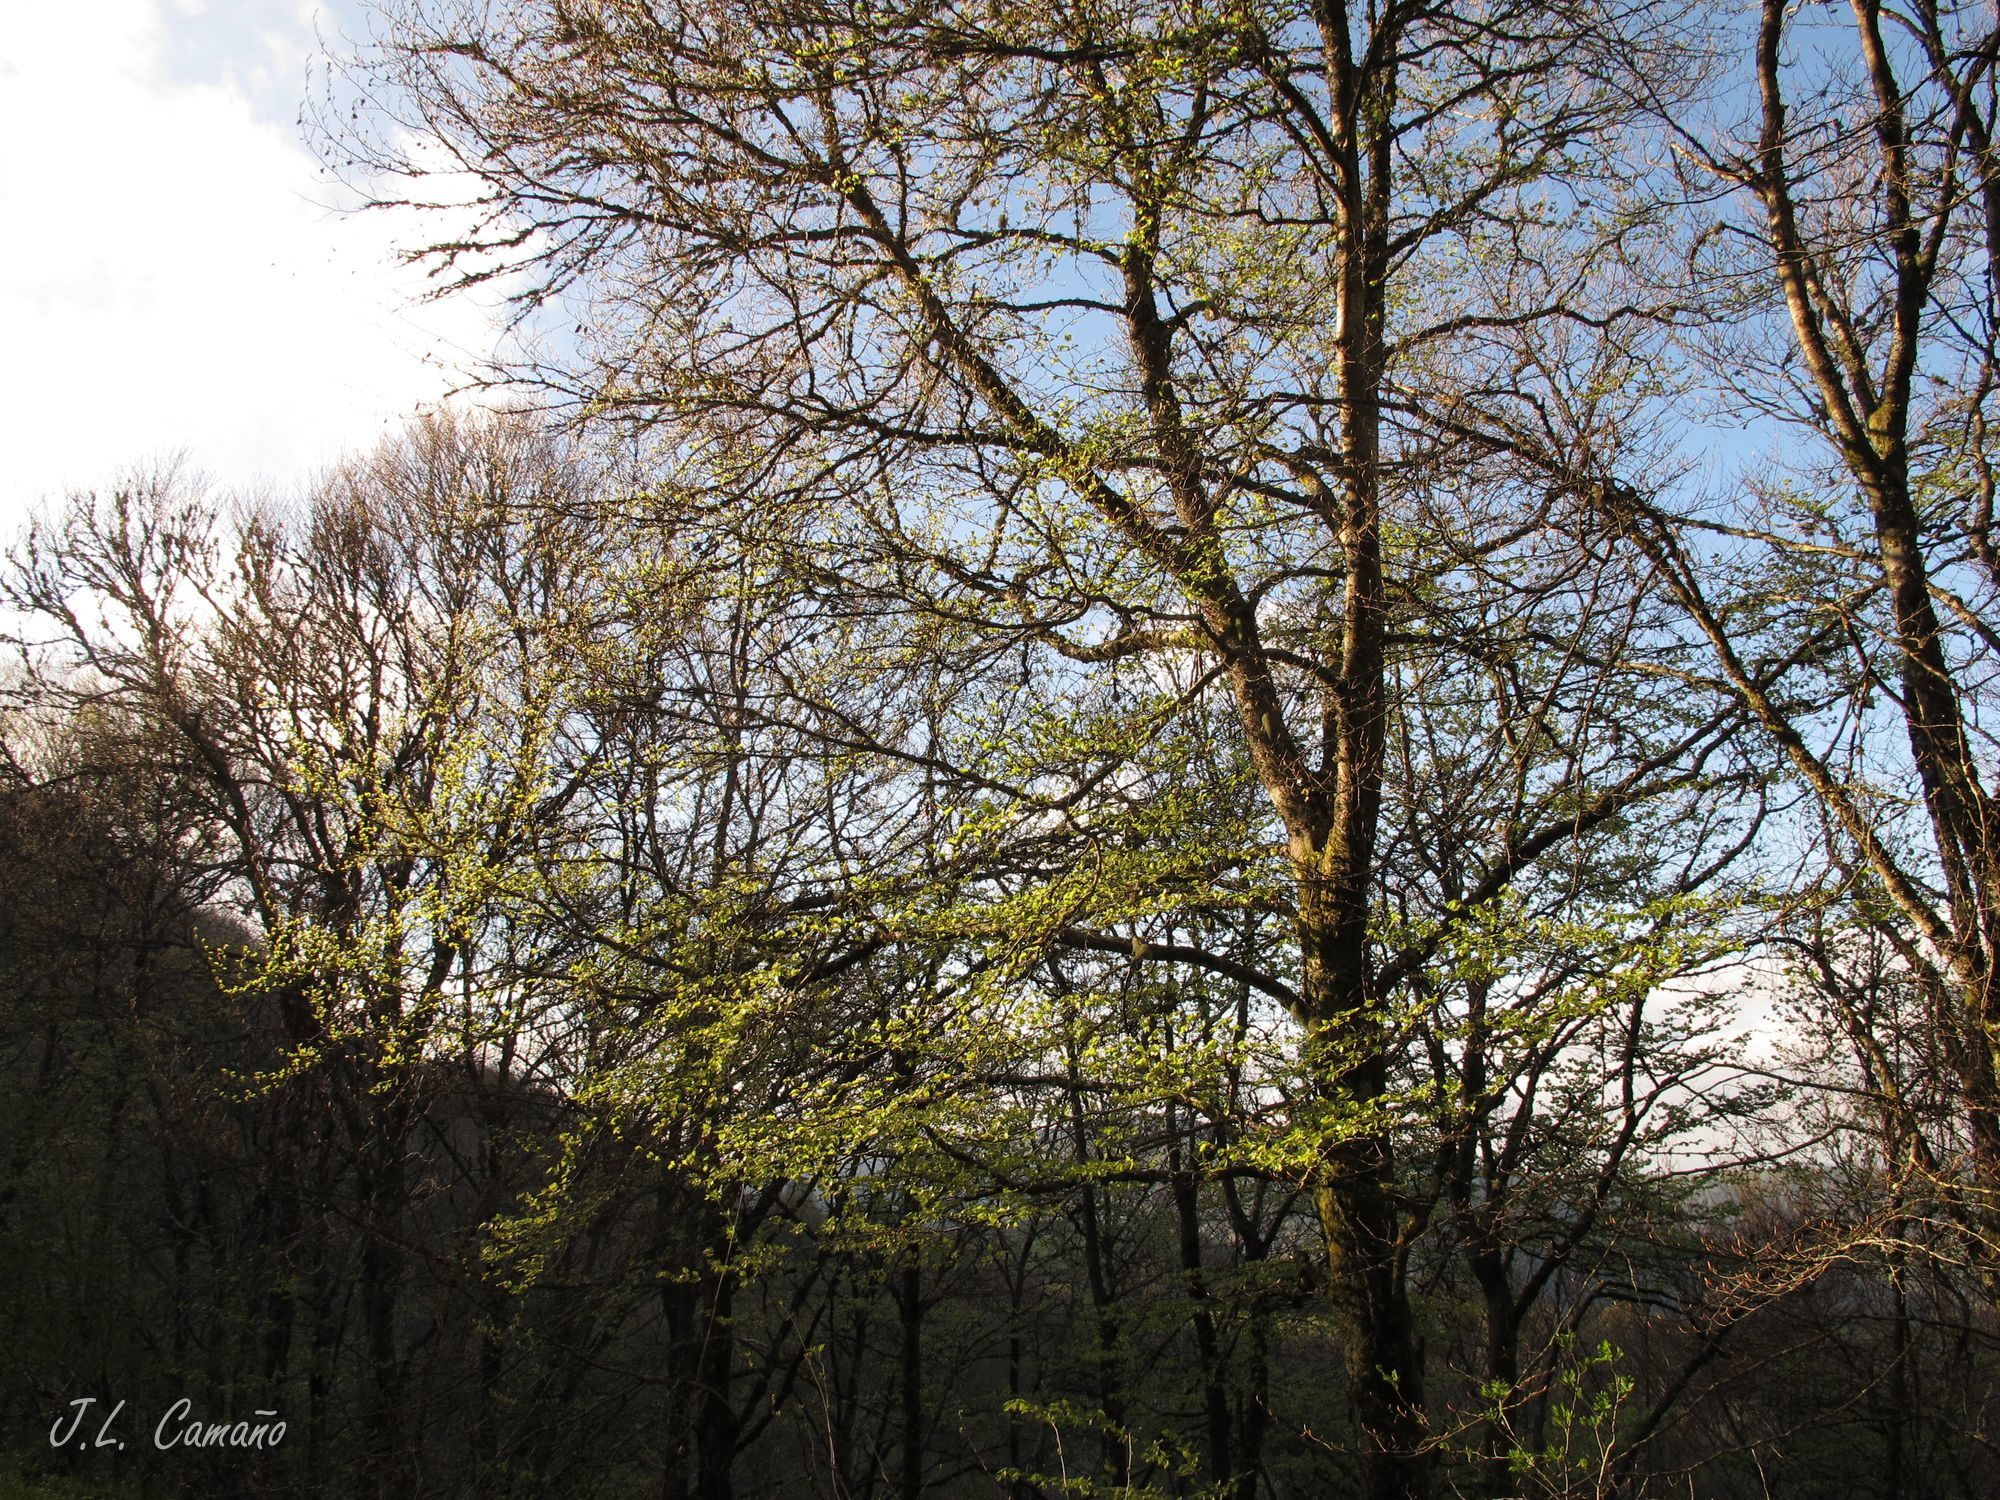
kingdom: Plantae
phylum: Tracheophyta
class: Magnoliopsida
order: Fagales
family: Fagaceae
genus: Fagus
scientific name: Fagus sylvatica
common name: Beech
